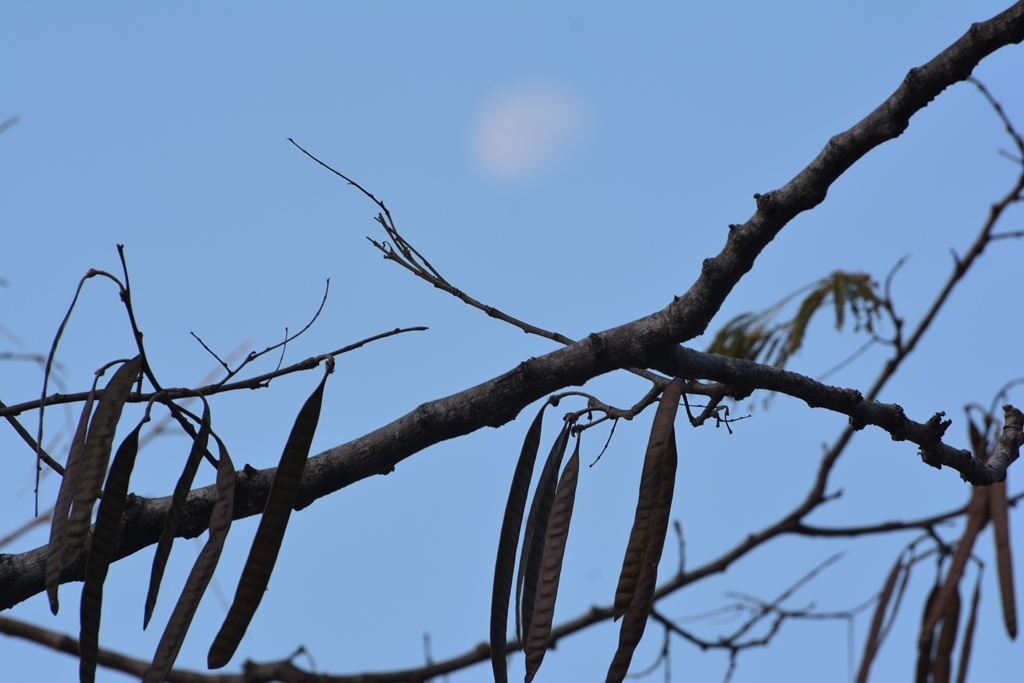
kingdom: Plantae
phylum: Tracheophyta
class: Magnoliopsida
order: Fabales
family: Fabaceae
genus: Leucaena
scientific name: Leucaena diversifolia
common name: Red leucaena
